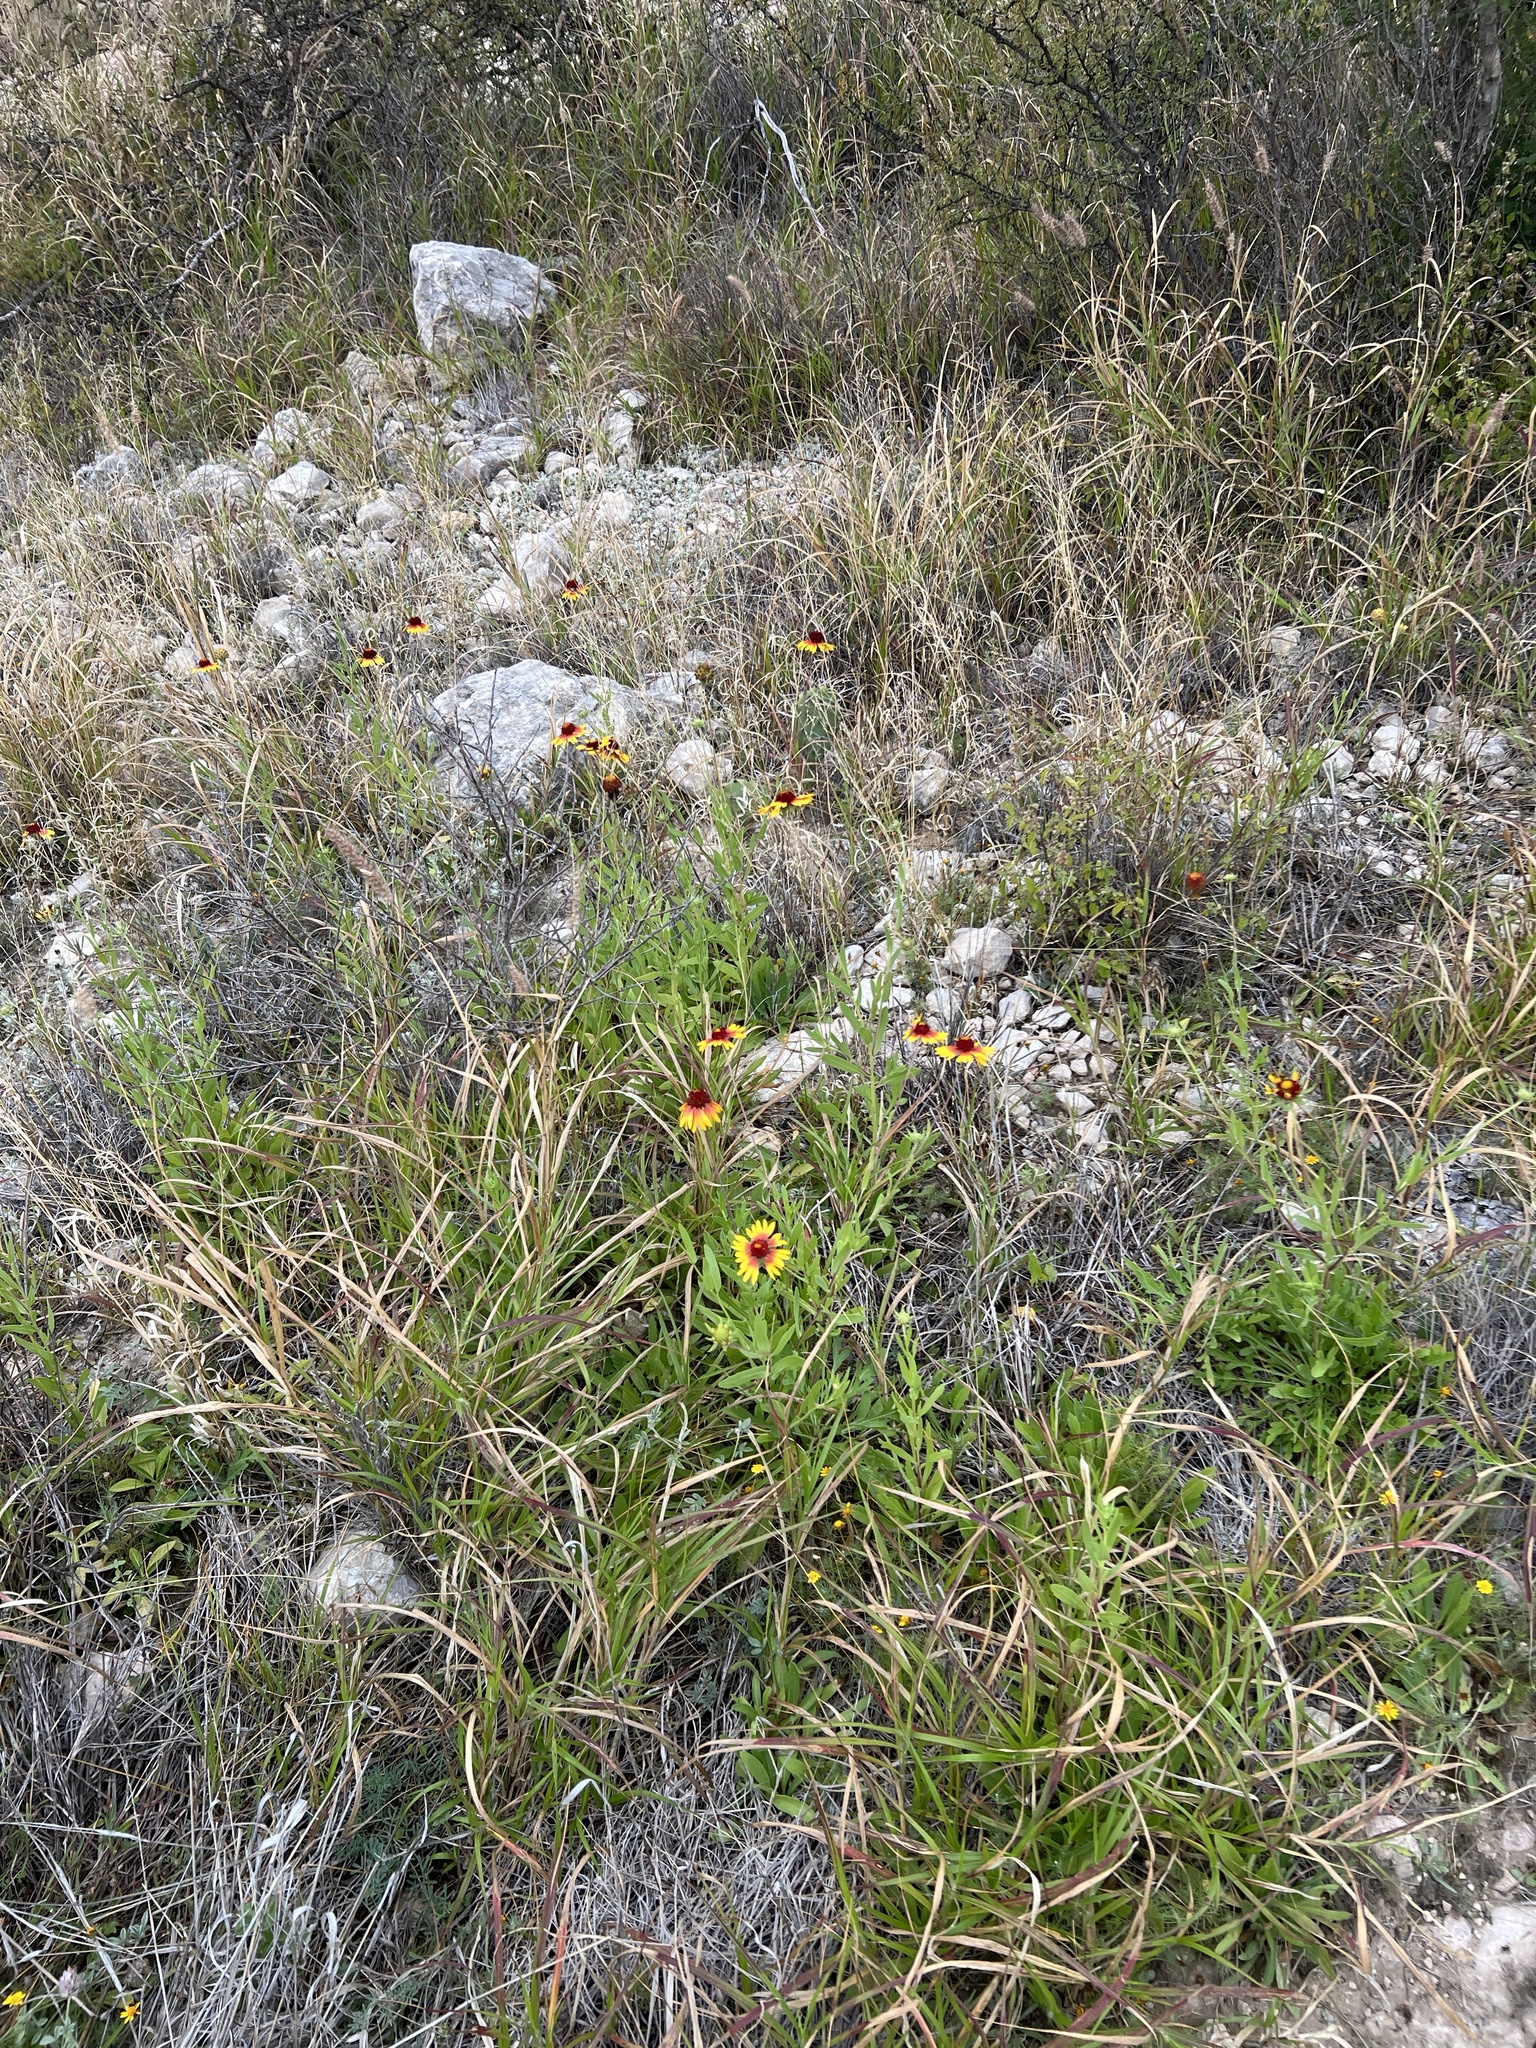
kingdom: Plantae
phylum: Tracheophyta
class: Magnoliopsida
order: Asterales
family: Asteraceae
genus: Gaillardia
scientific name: Gaillardia pulchella
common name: Firewheel
